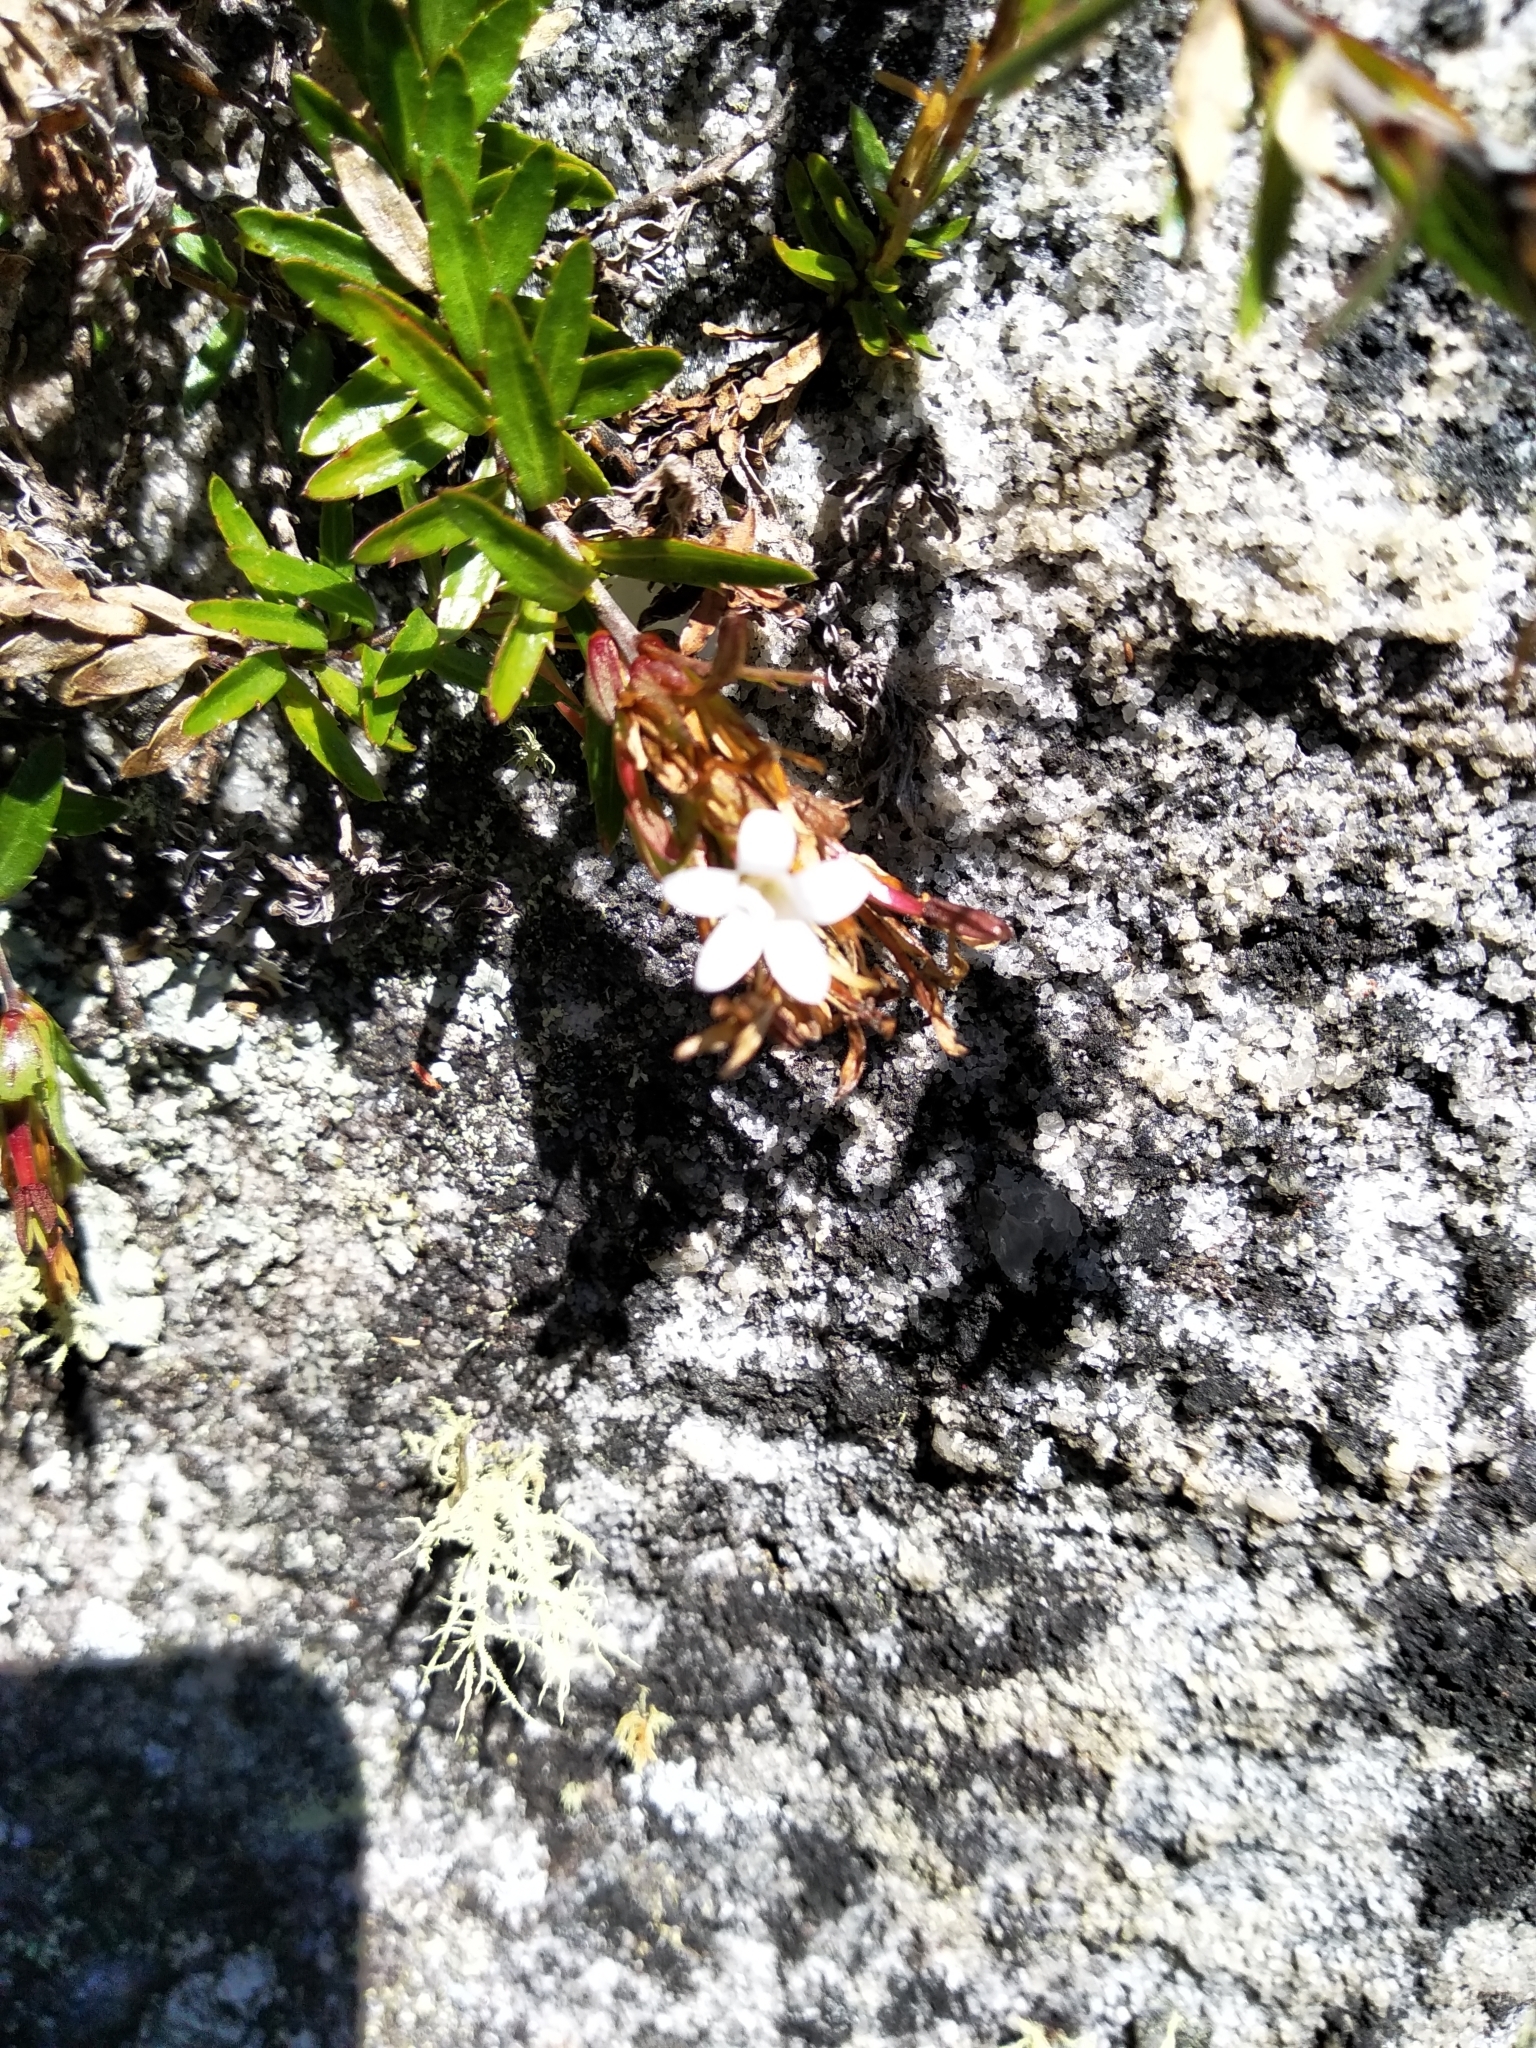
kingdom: Plantae
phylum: Tracheophyta
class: Magnoliopsida
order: Asterales
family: Campanulaceae
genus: Prismatocarpus
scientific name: Prismatocarpus nitidus
